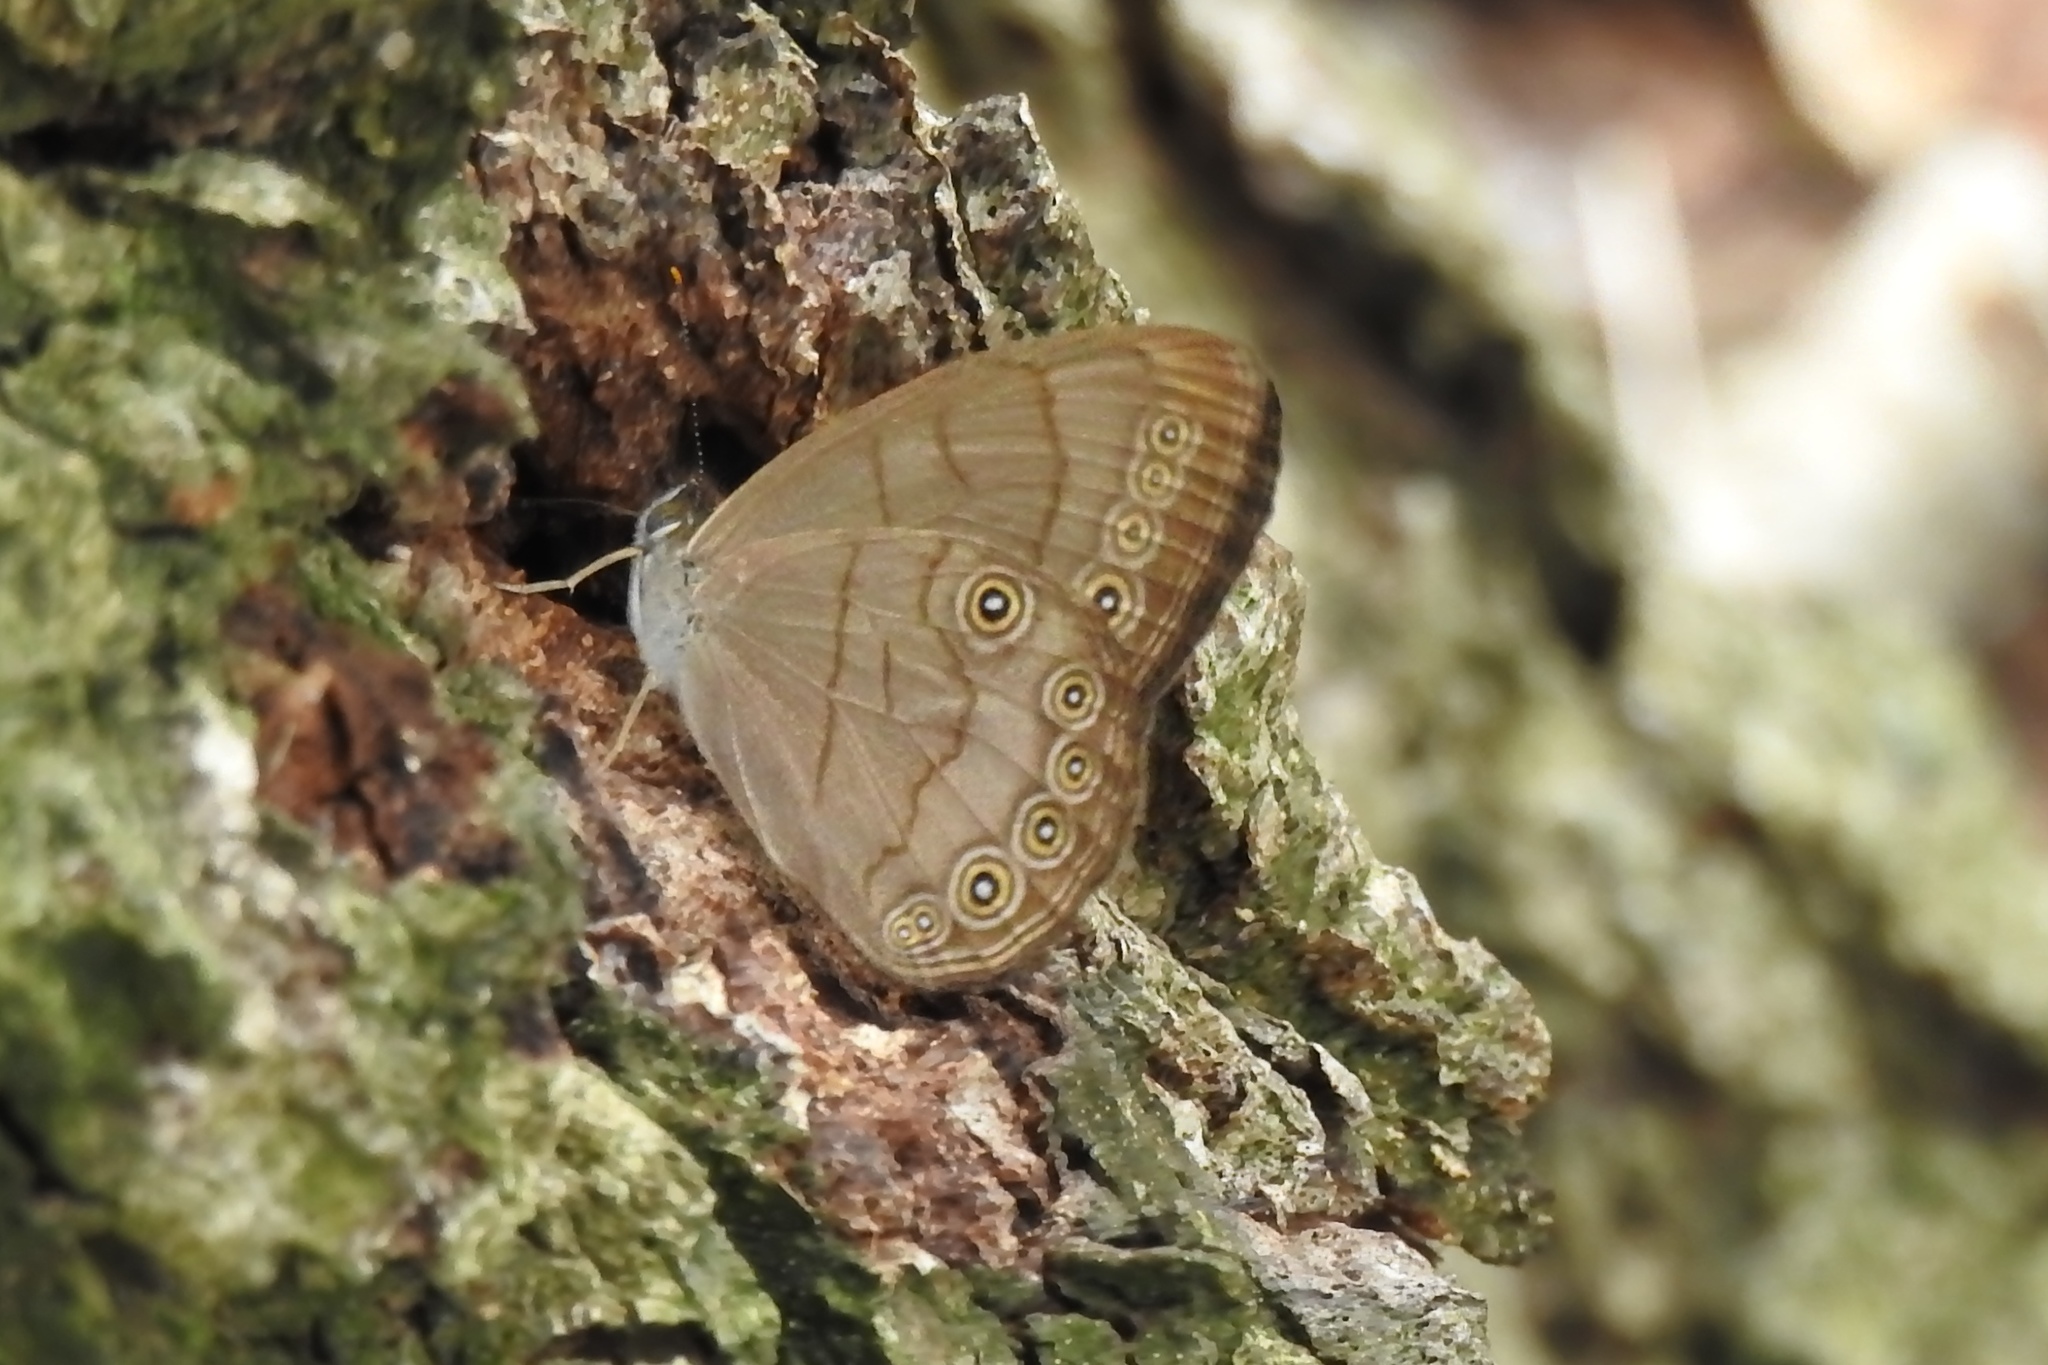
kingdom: Animalia
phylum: Arthropoda
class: Insecta
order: Lepidoptera
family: Nymphalidae
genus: Lethe
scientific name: Lethe eurydice
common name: Eyed brown
